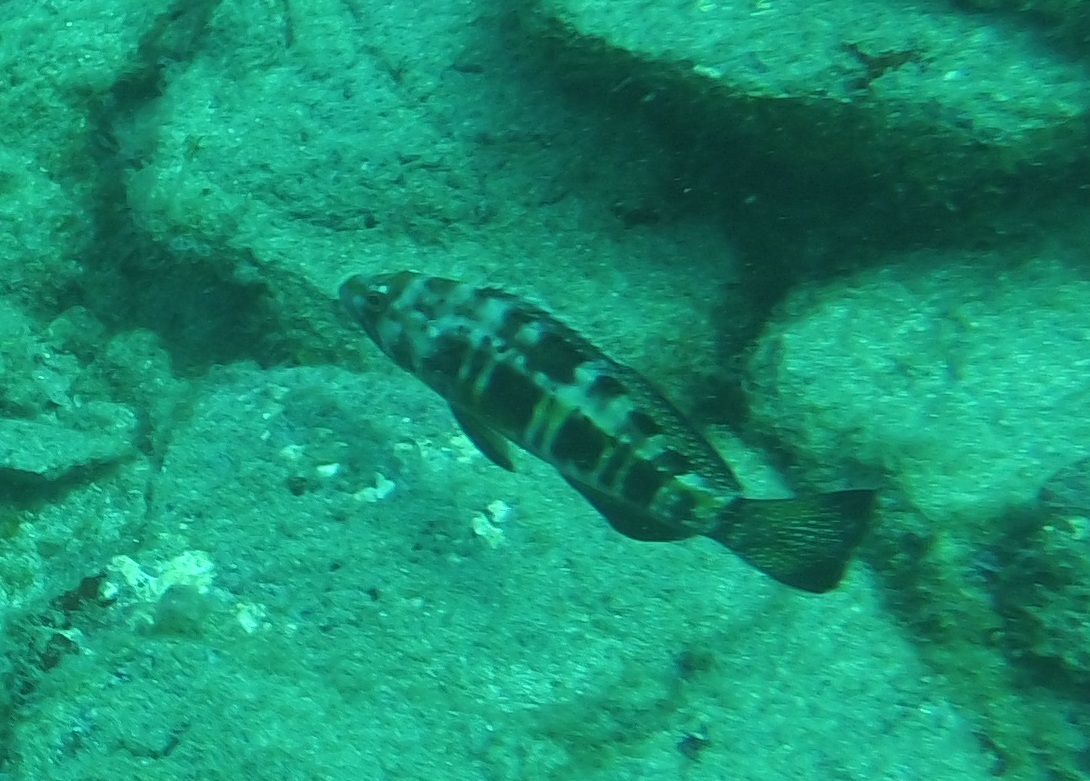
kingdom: Animalia
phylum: Chordata
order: Perciformes
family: Serranidae
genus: Serranus
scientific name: Serranus atricauda
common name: Blacktail comber
